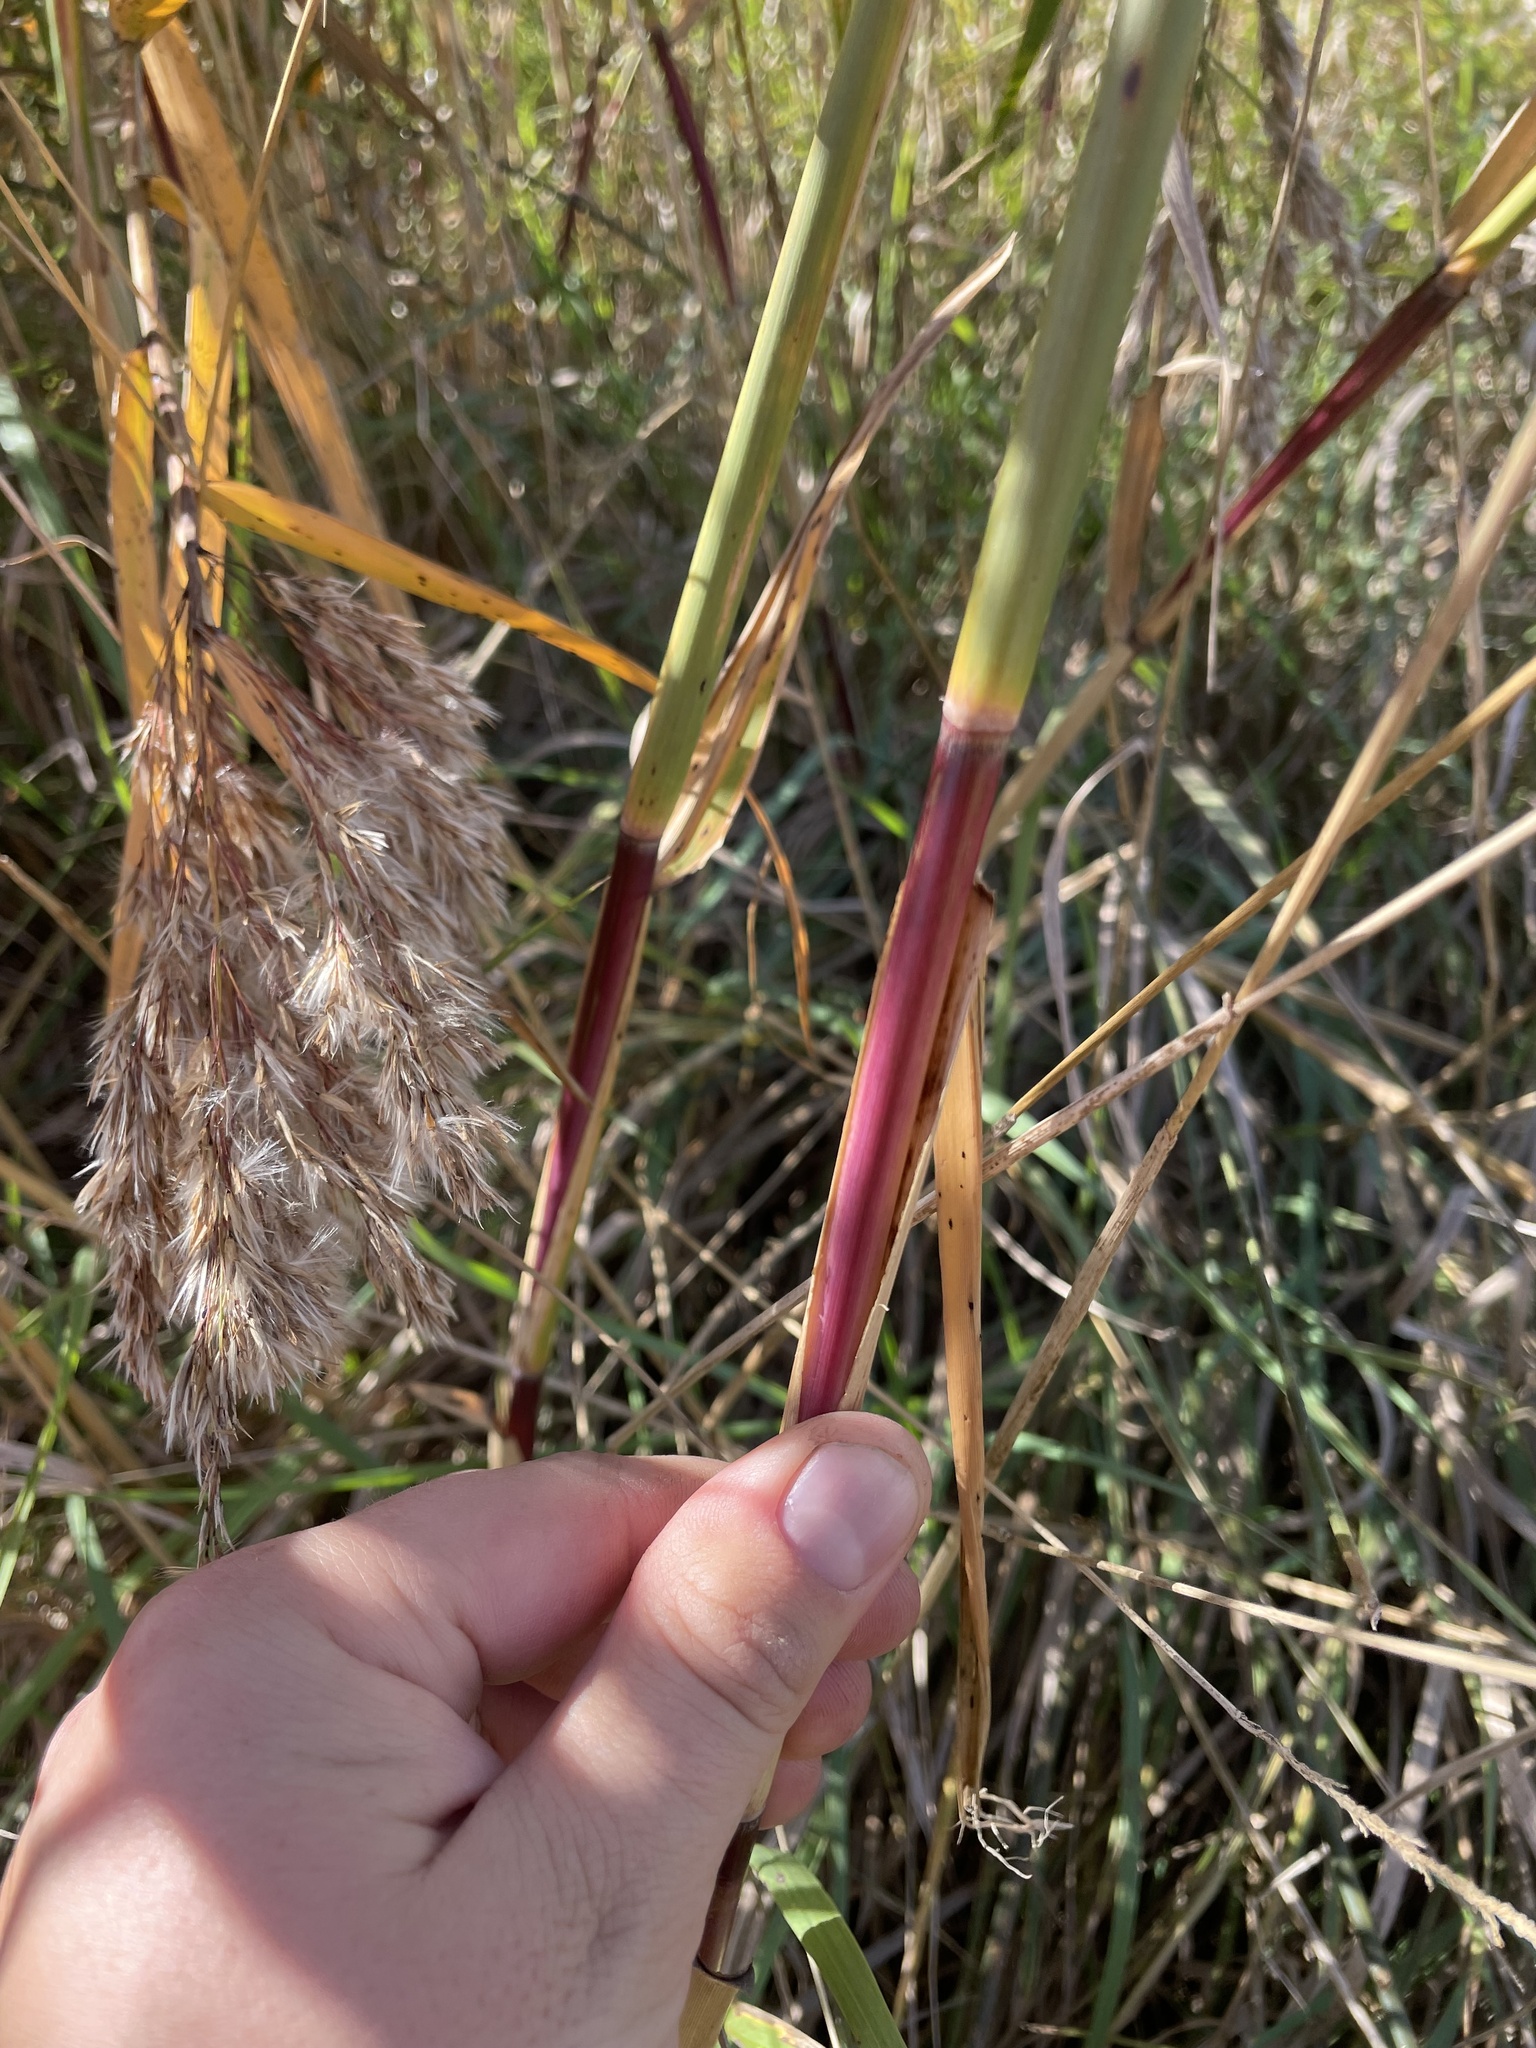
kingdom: Plantae
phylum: Tracheophyta
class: Liliopsida
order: Poales
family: Poaceae
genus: Phragmites
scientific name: Phragmites australis
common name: Common reed
